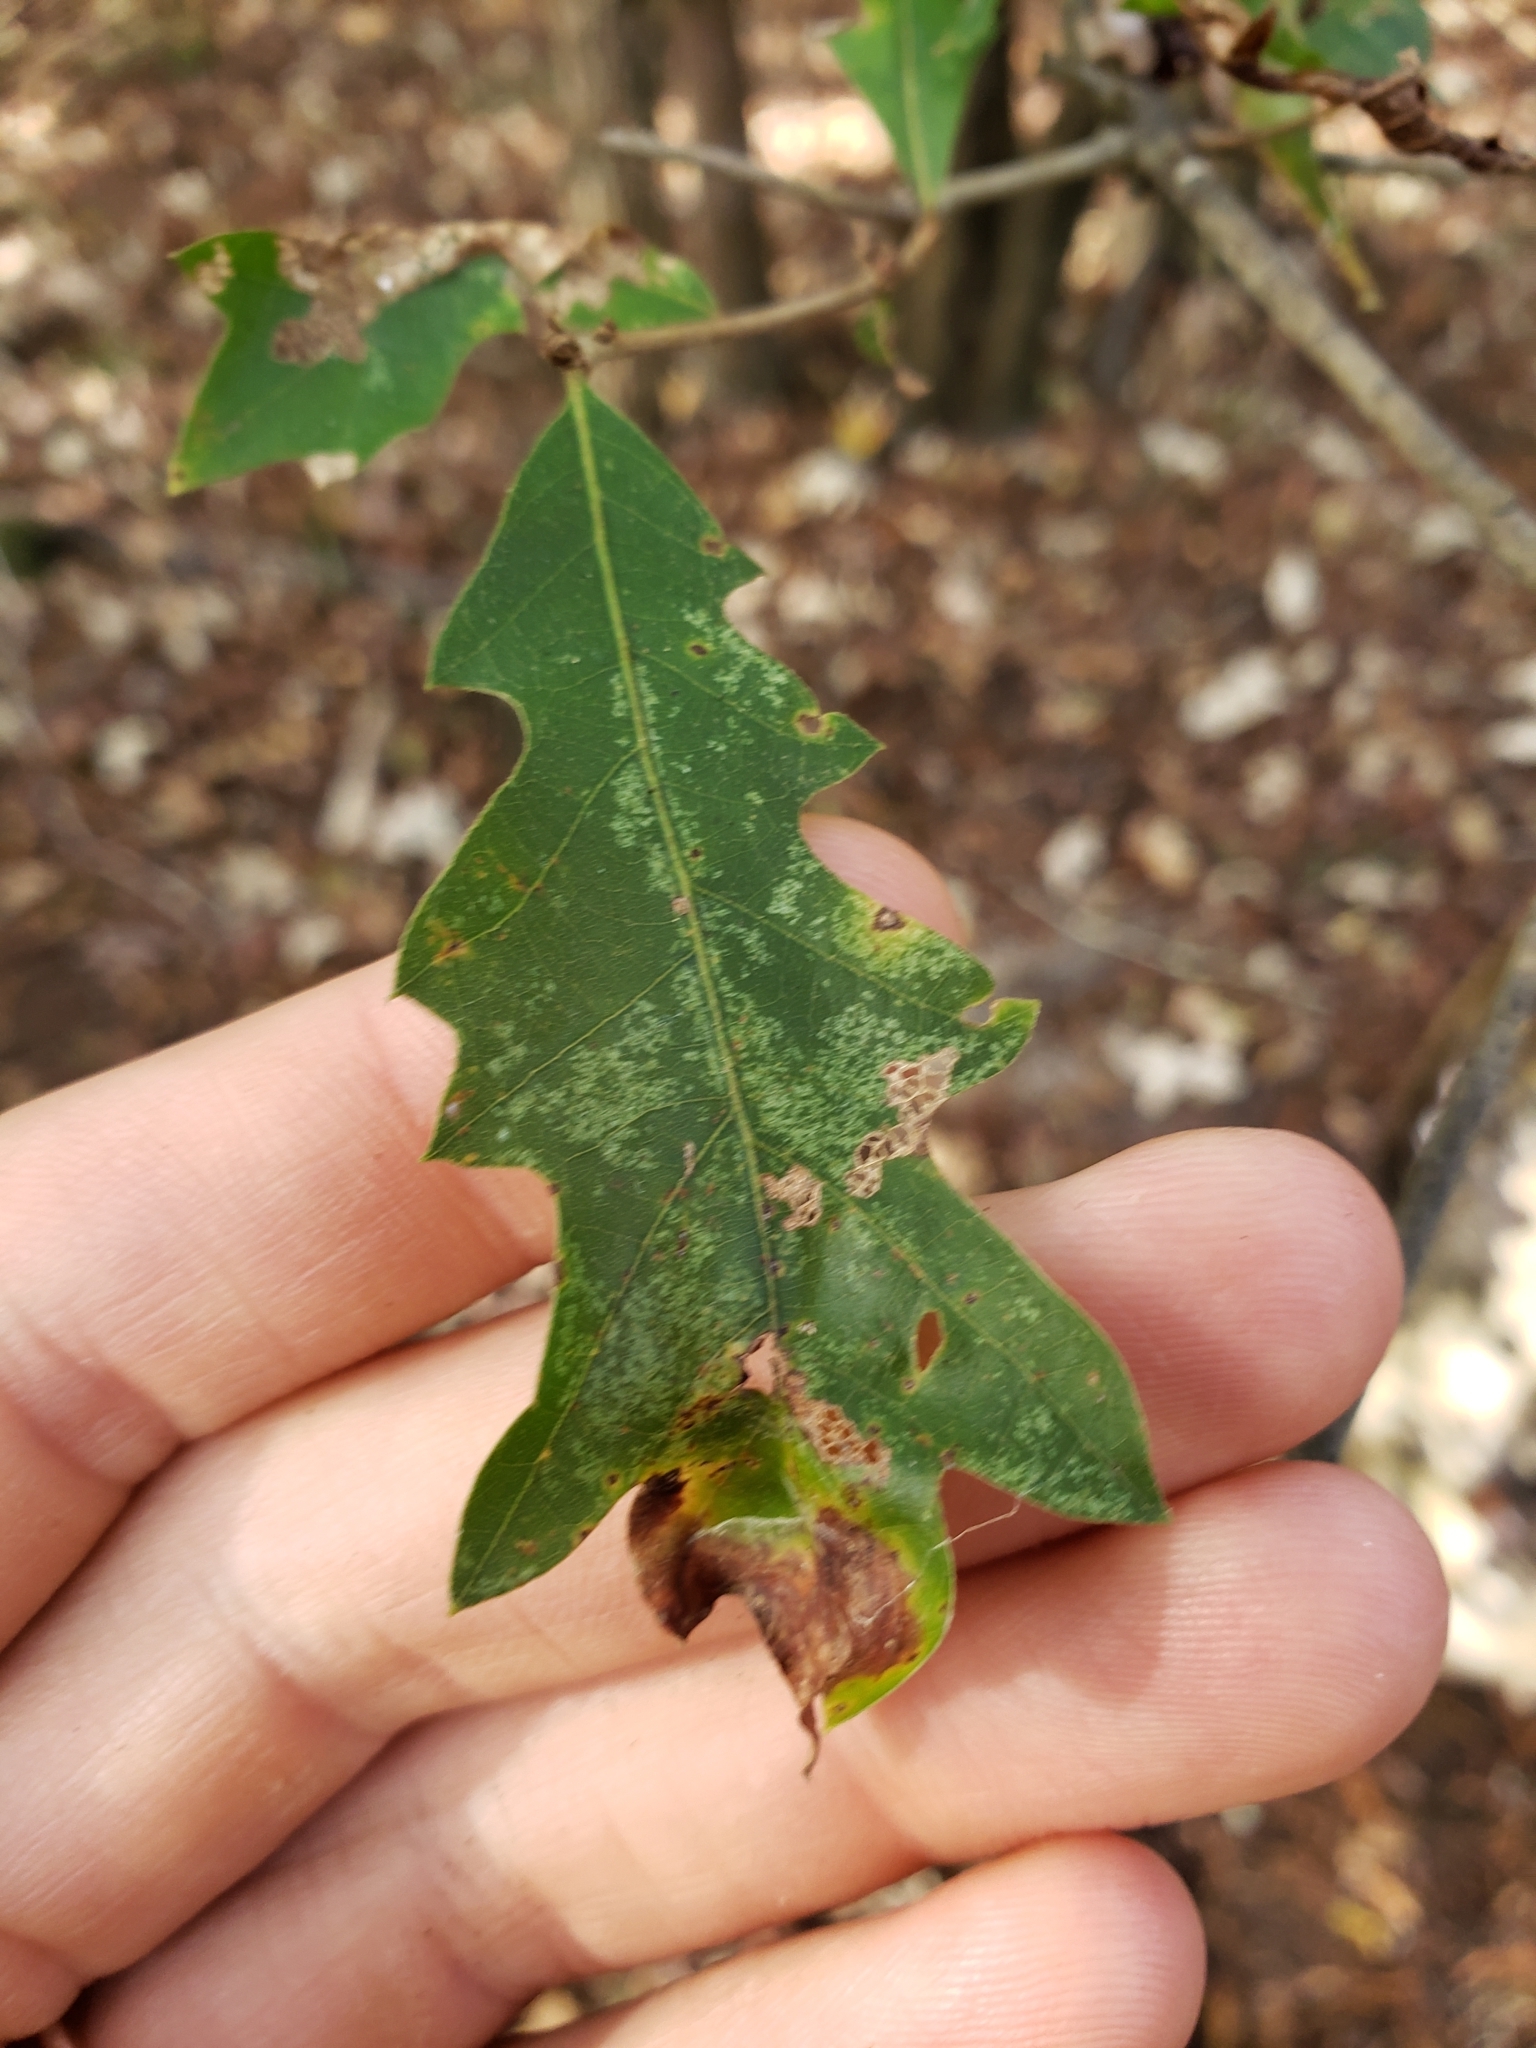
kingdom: Plantae
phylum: Tracheophyta
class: Magnoliopsida
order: Fagales
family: Fagaceae
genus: Quercus
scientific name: Quercus lyrata
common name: Overcup oak
